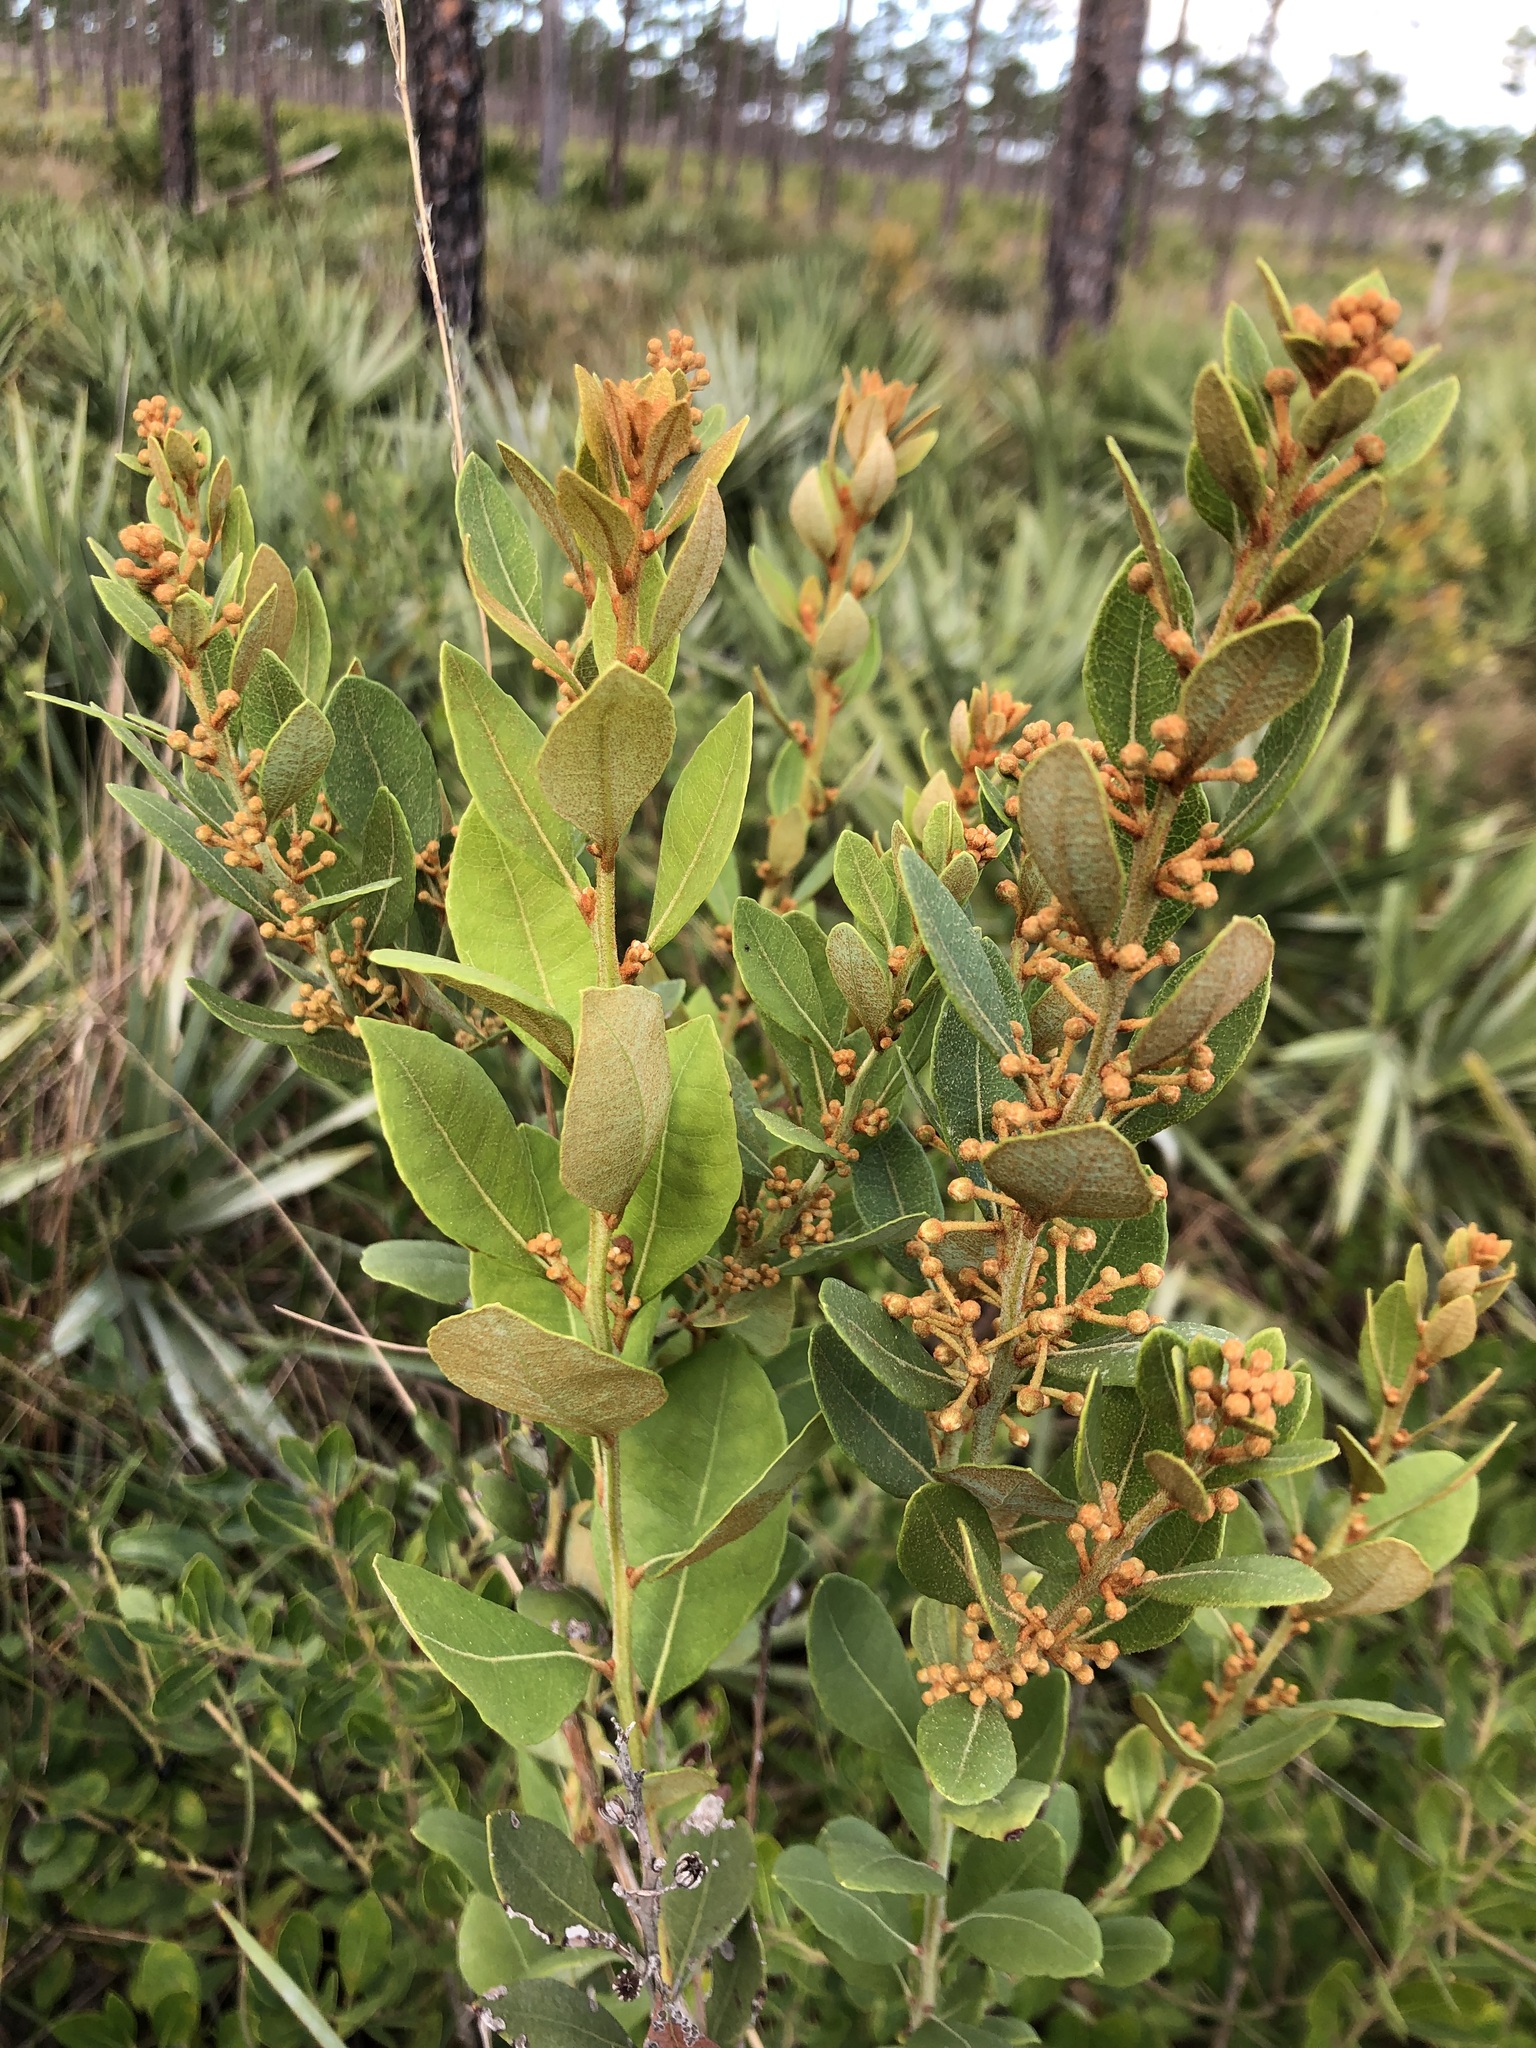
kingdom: Plantae
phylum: Tracheophyta
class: Magnoliopsida
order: Ericales
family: Ericaceae
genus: Lyonia
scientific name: Lyonia fruticosa
